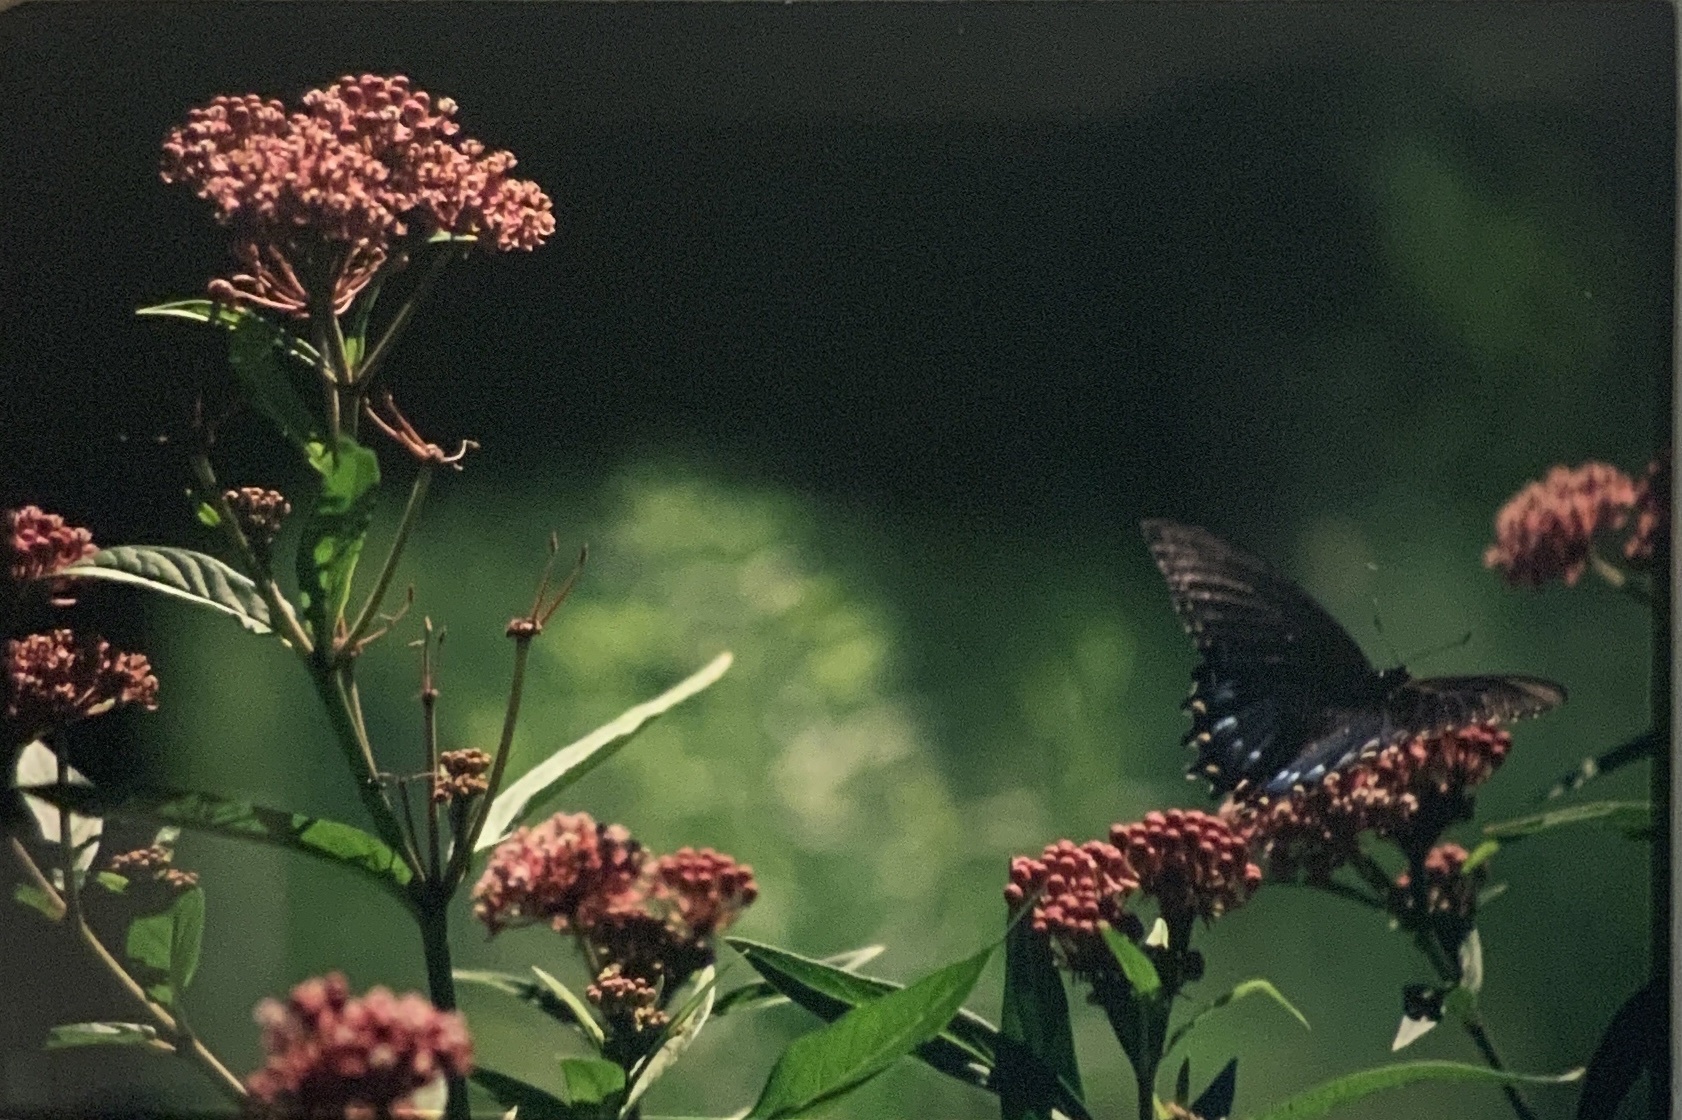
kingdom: Animalia
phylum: Arthropoda
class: Insecta
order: Lepidoptera
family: Papilionidae
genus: Papilio
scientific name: Papilio glaucus
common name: Tiger swallowtail
